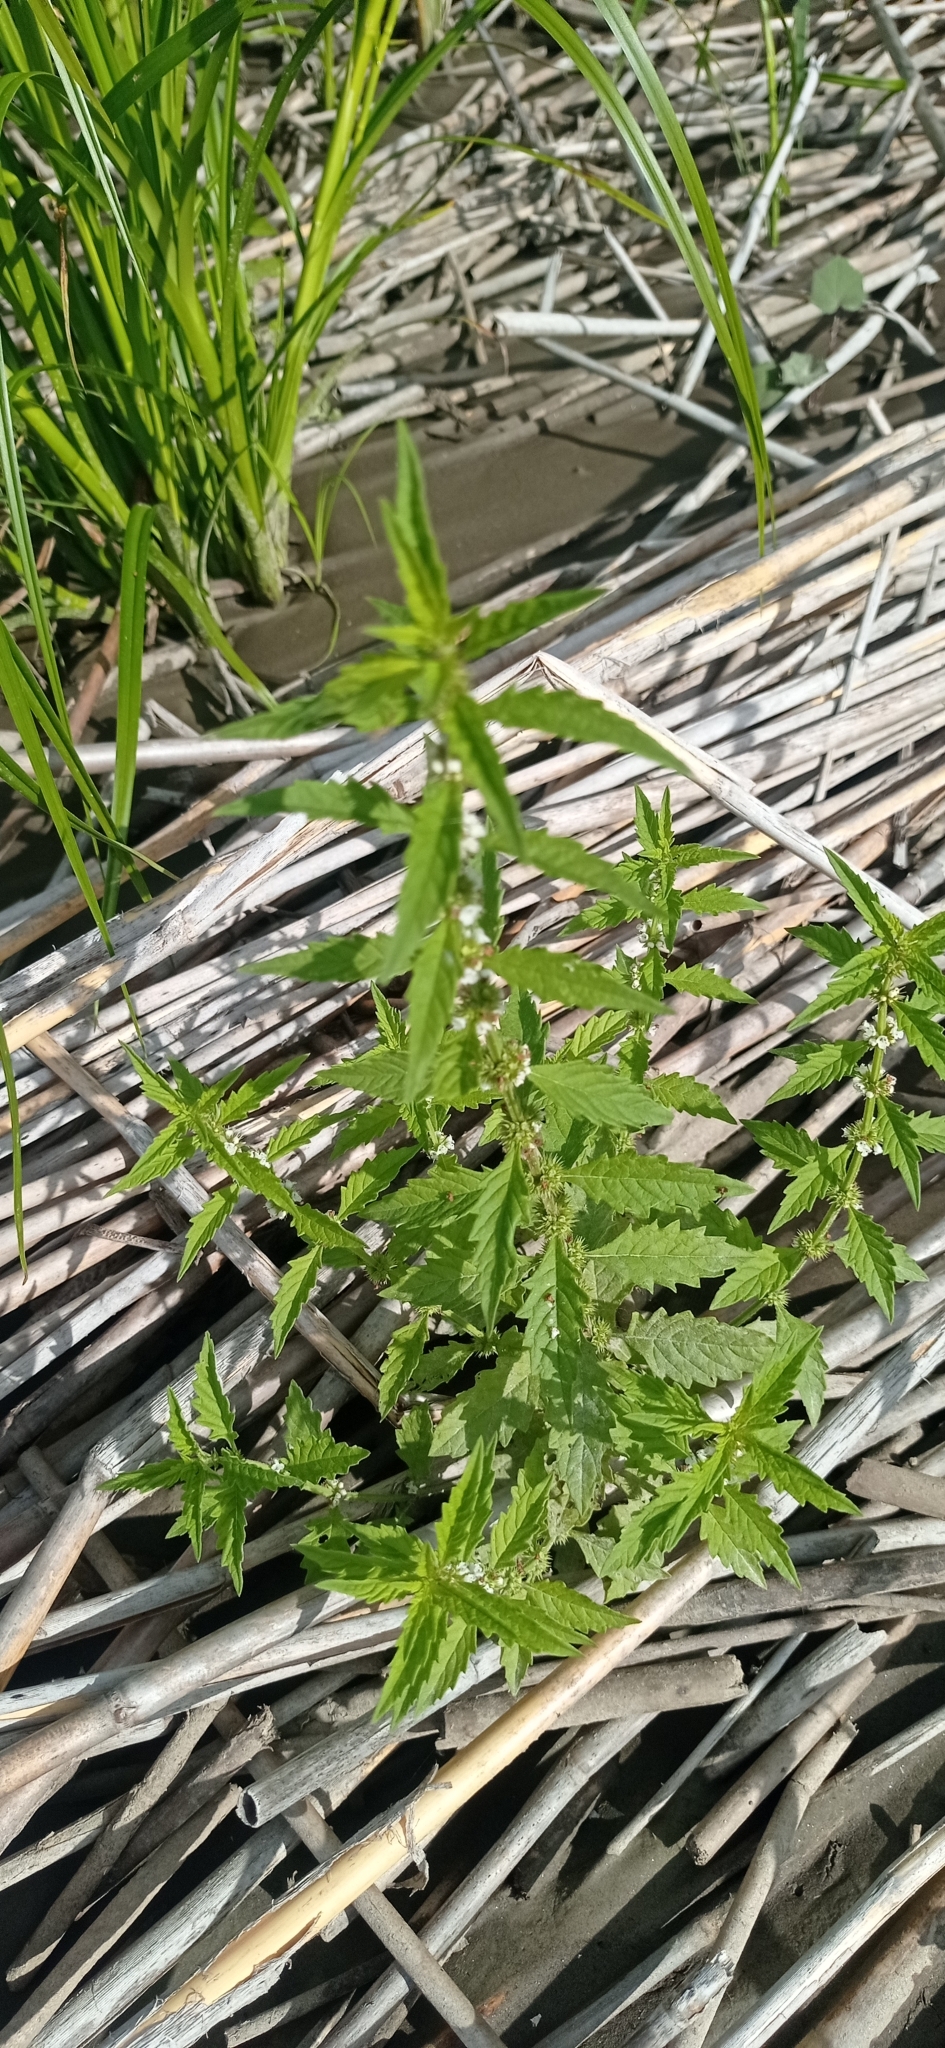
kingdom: Plantae
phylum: Tracheophyta
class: Magnoliopsida
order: Lamiales
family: Lamiaceae
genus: Lycopus
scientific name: Lycopus europaeus
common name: European bugleweed
